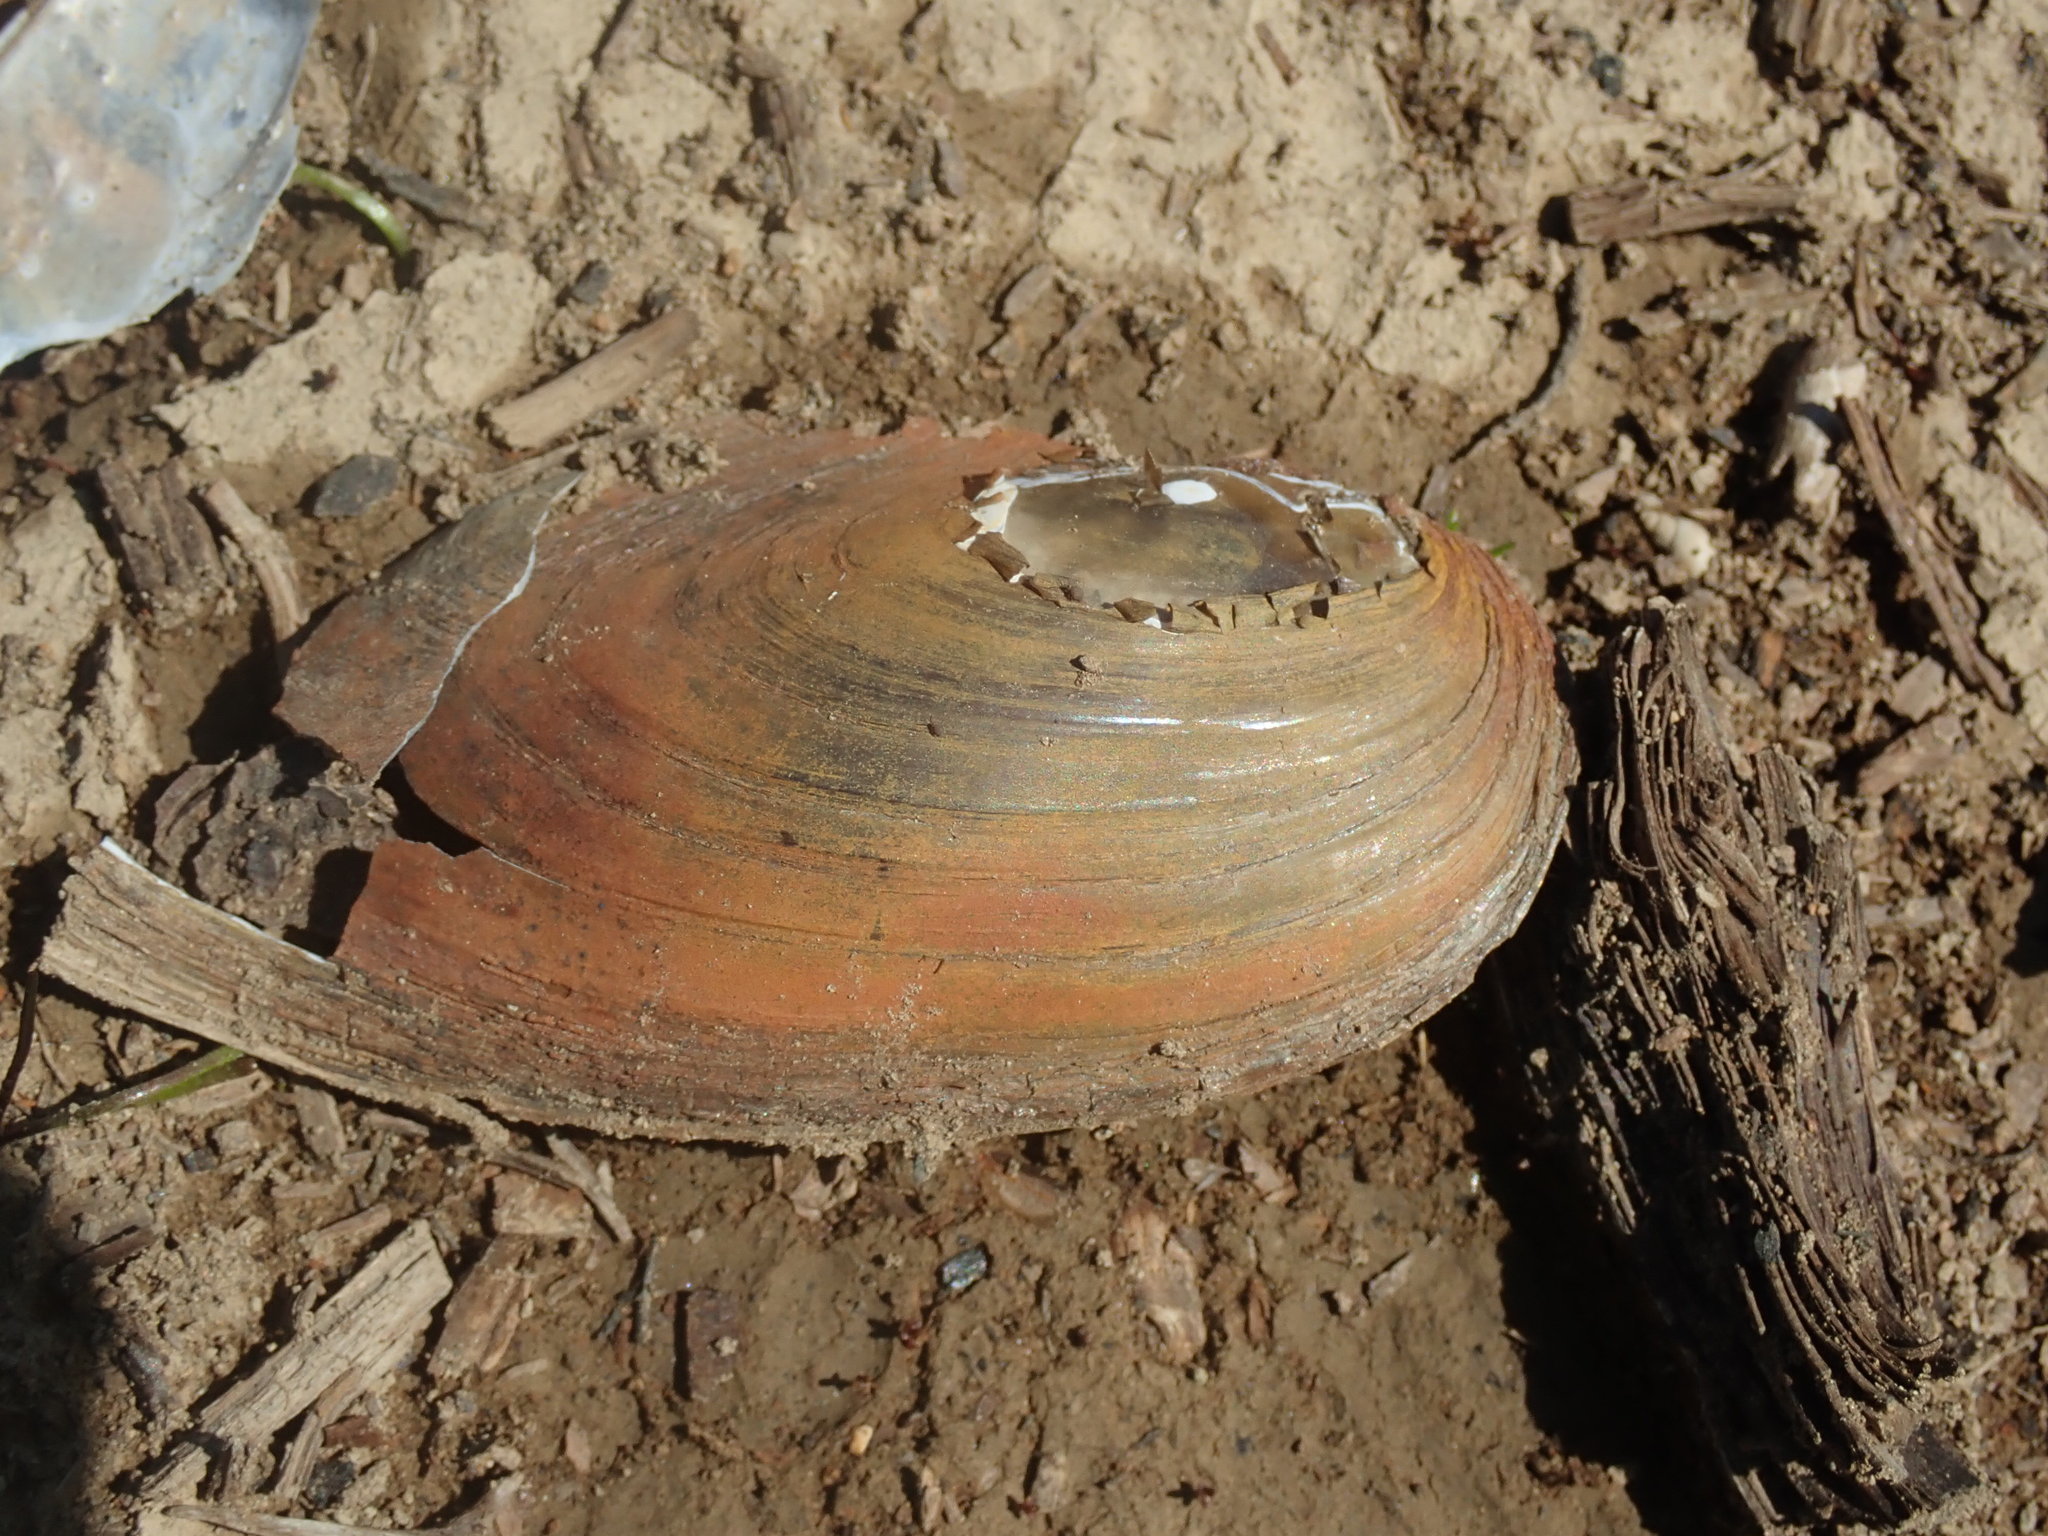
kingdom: Animalia
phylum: Mollusca
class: Bivalvia
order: Unionida
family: Unionidae
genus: Anodonta
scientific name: Anodonta kennerlyi
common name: Western floater
